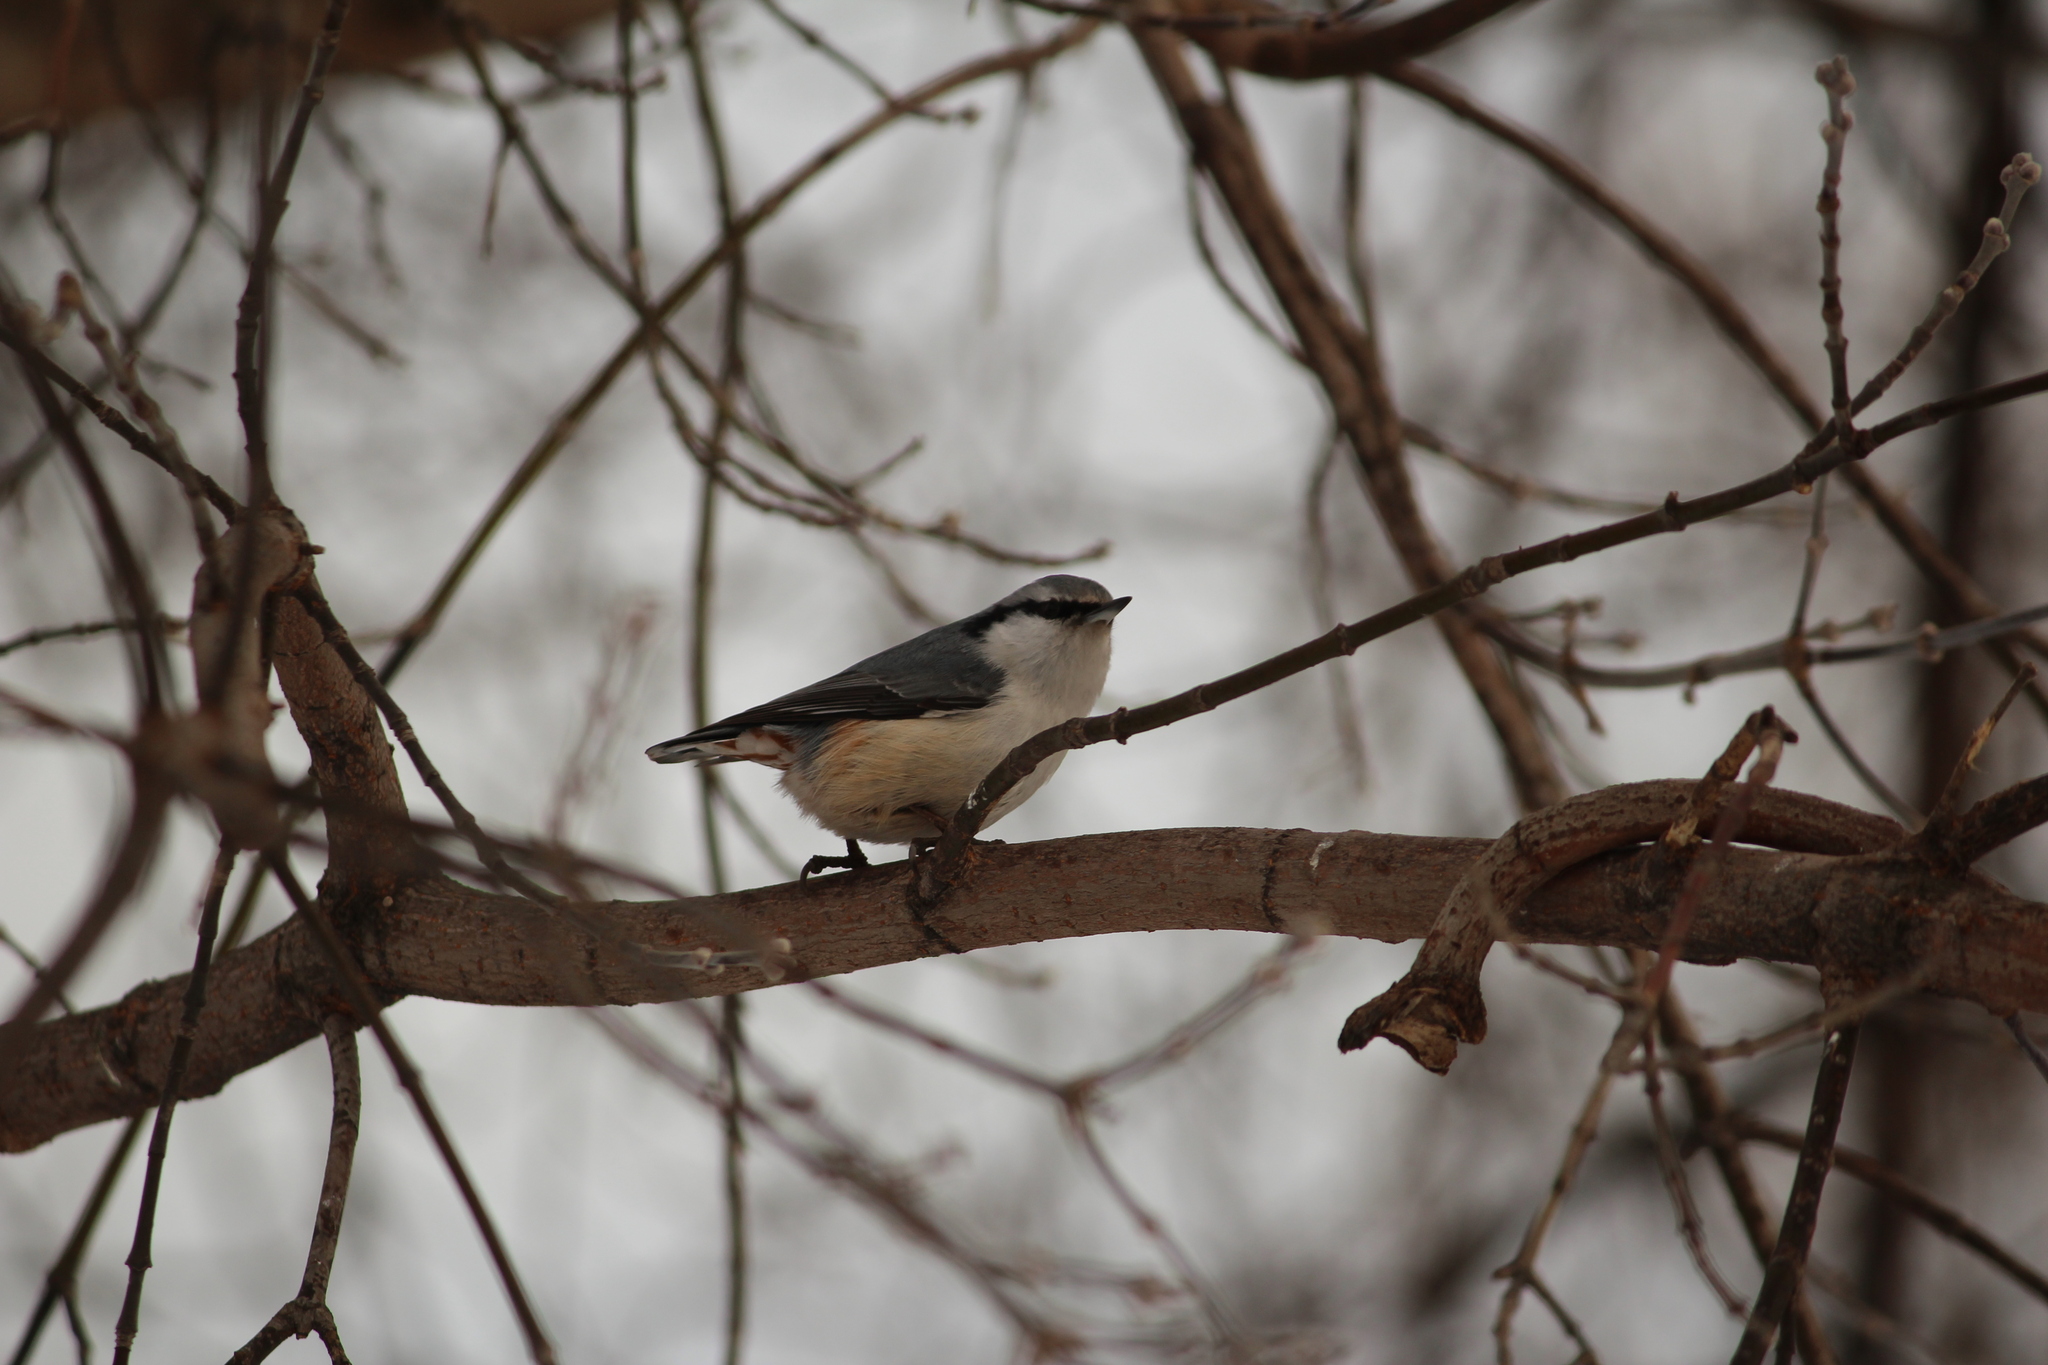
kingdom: Animalia
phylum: Chordata
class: Aves
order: Passeriformes
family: Sittidae
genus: Sitta
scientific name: Sitta europaea
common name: Eurasian nuthatch
